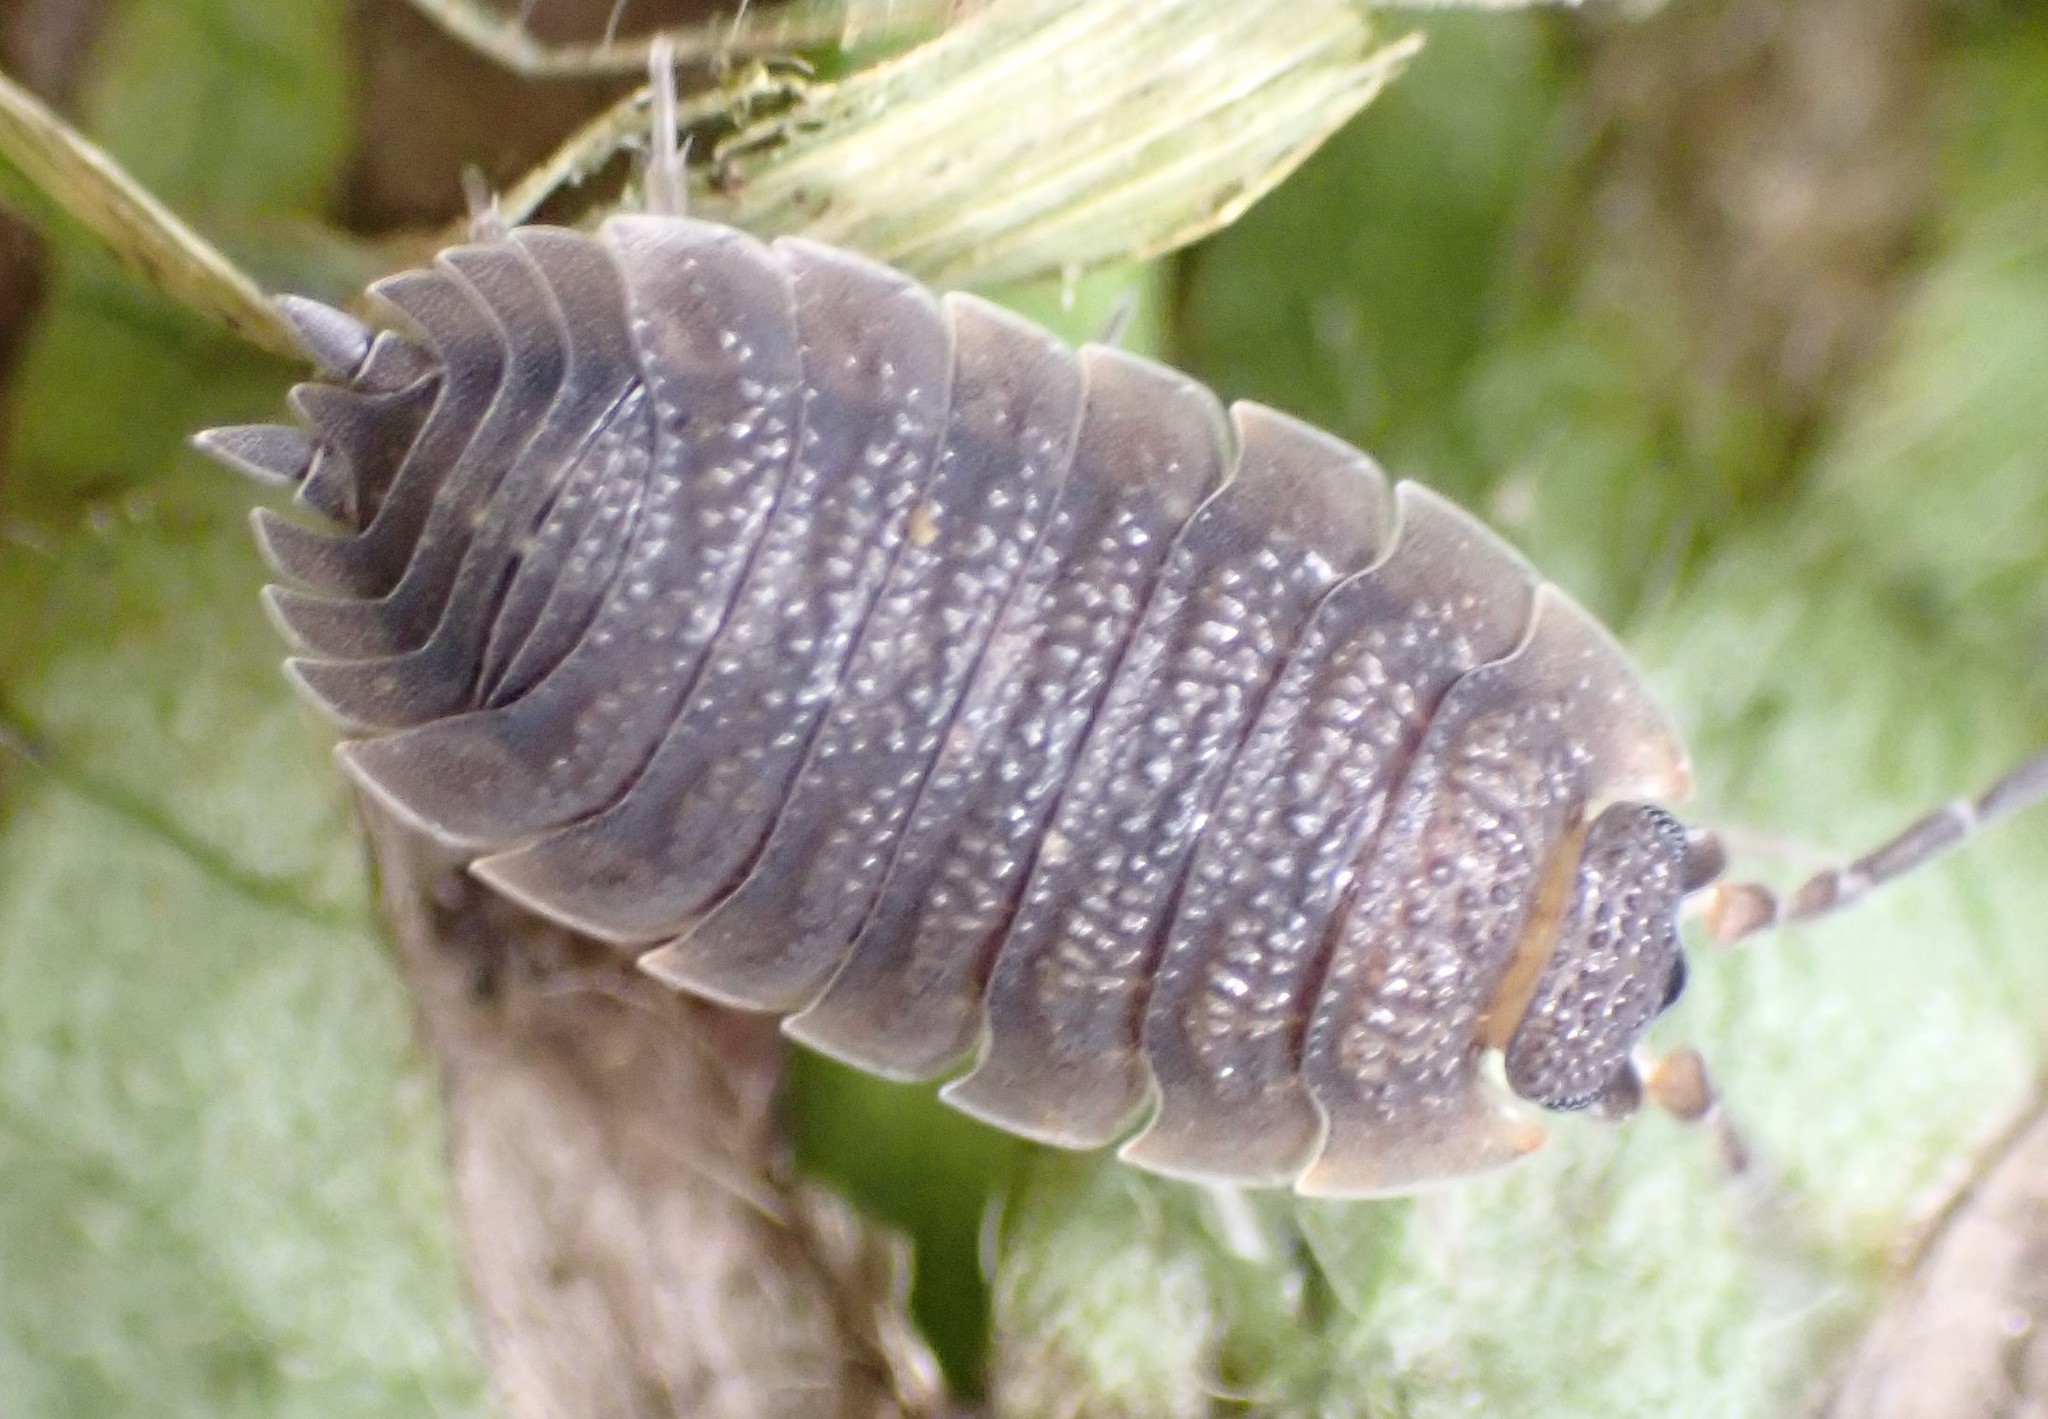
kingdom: Animalia
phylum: Arthropoda
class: Malacostraca
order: Isopoda
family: Porcellionidae
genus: Porcellio
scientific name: Porcellio scaber
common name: Common rough woodlouse
